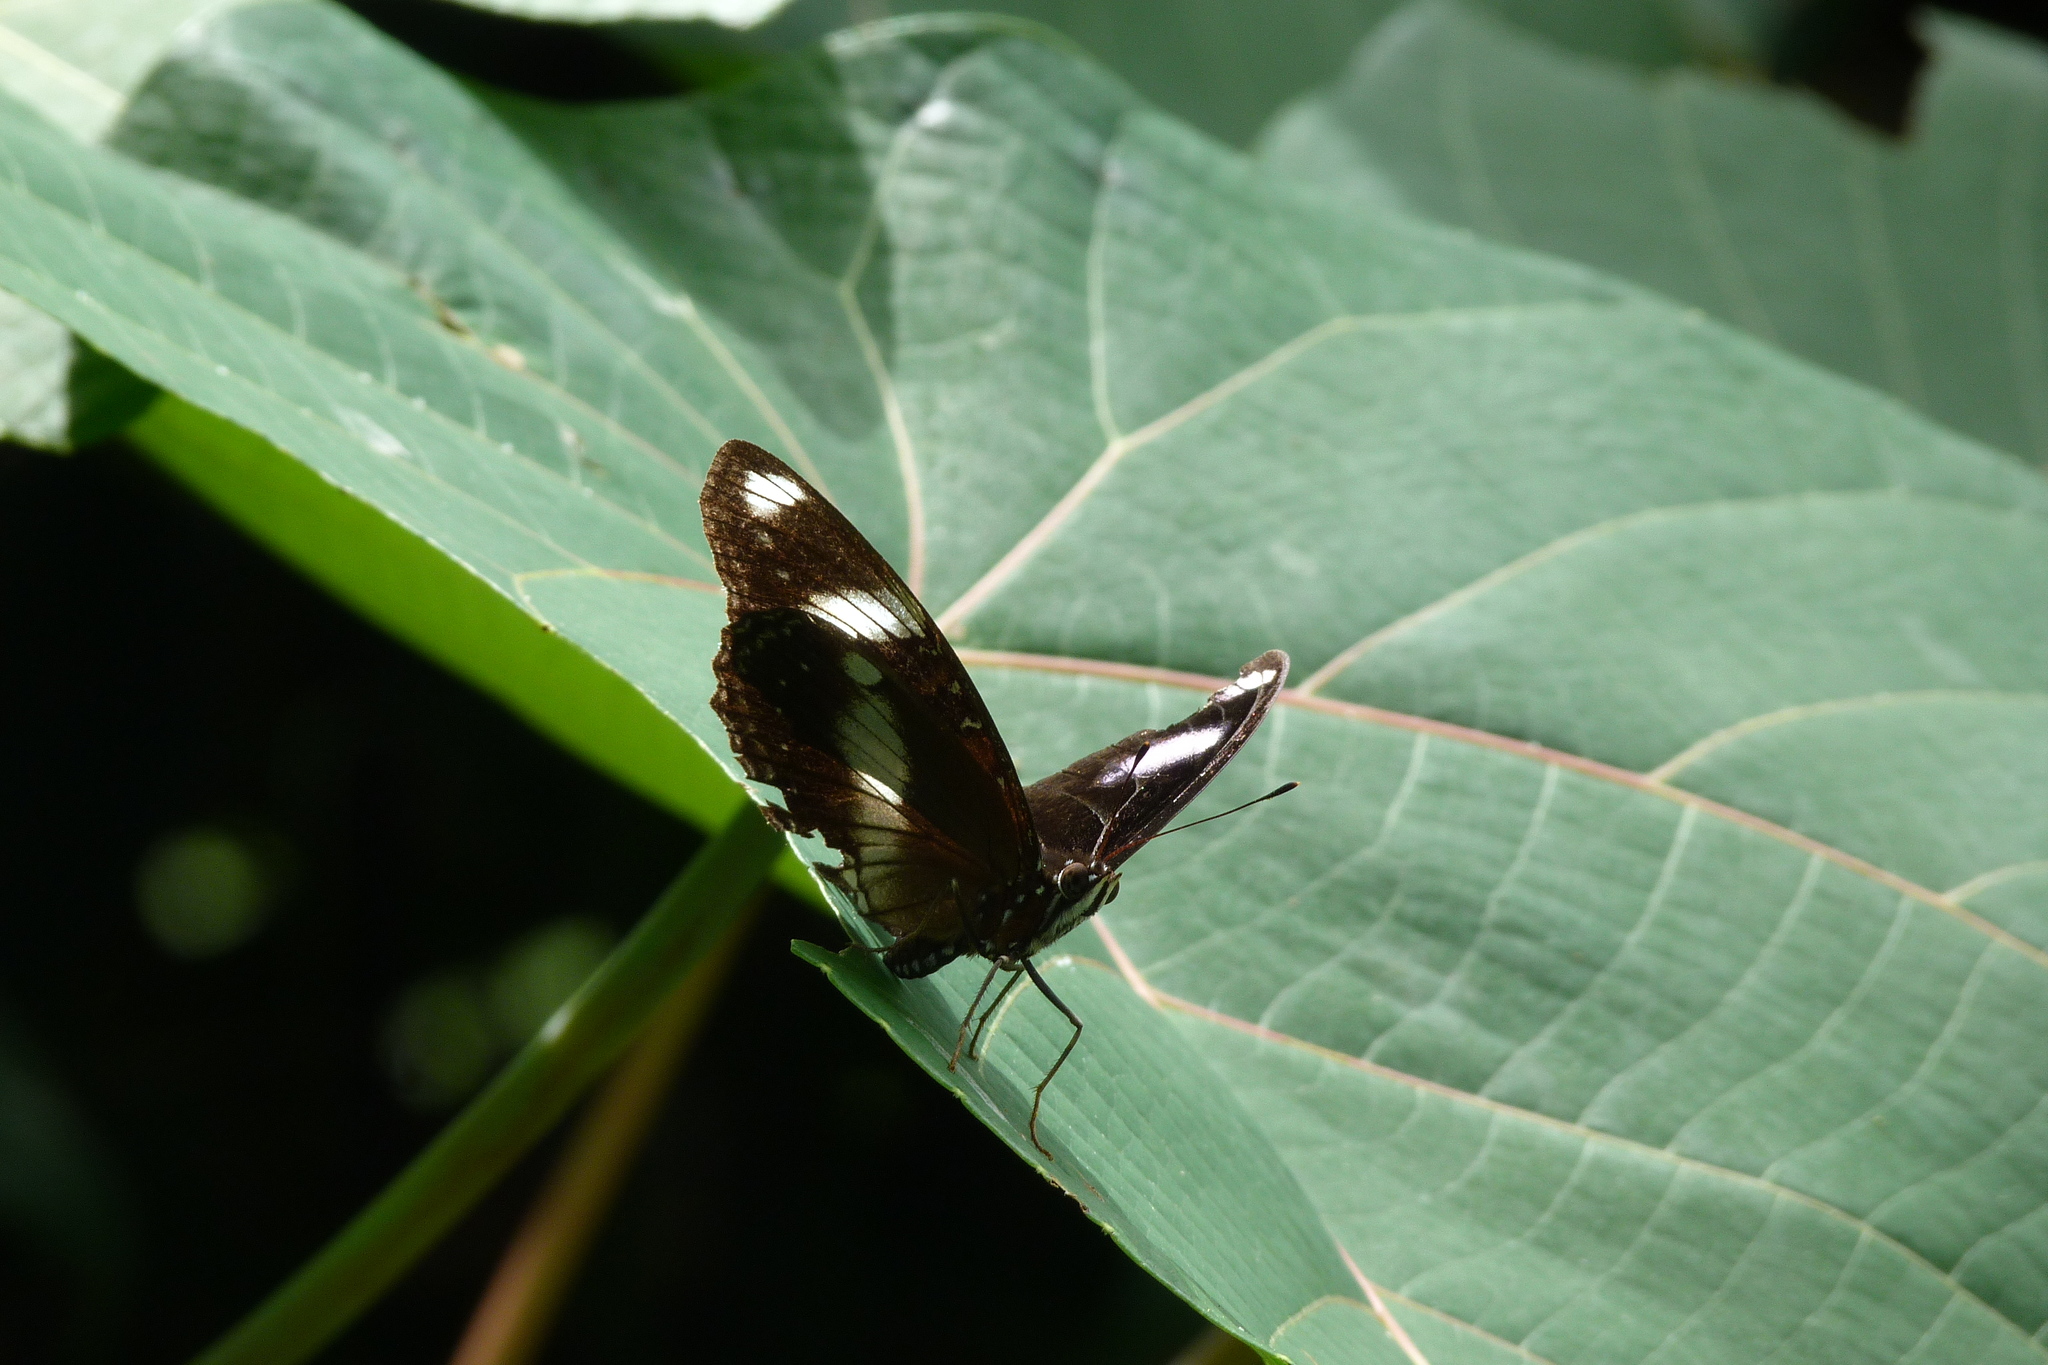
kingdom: Animalia
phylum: Arthropoda
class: Insecta
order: Lepidoptera
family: Nymphalidae
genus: Hypolimnas
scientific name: Hypolimnas bolina
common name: Great eggfly
